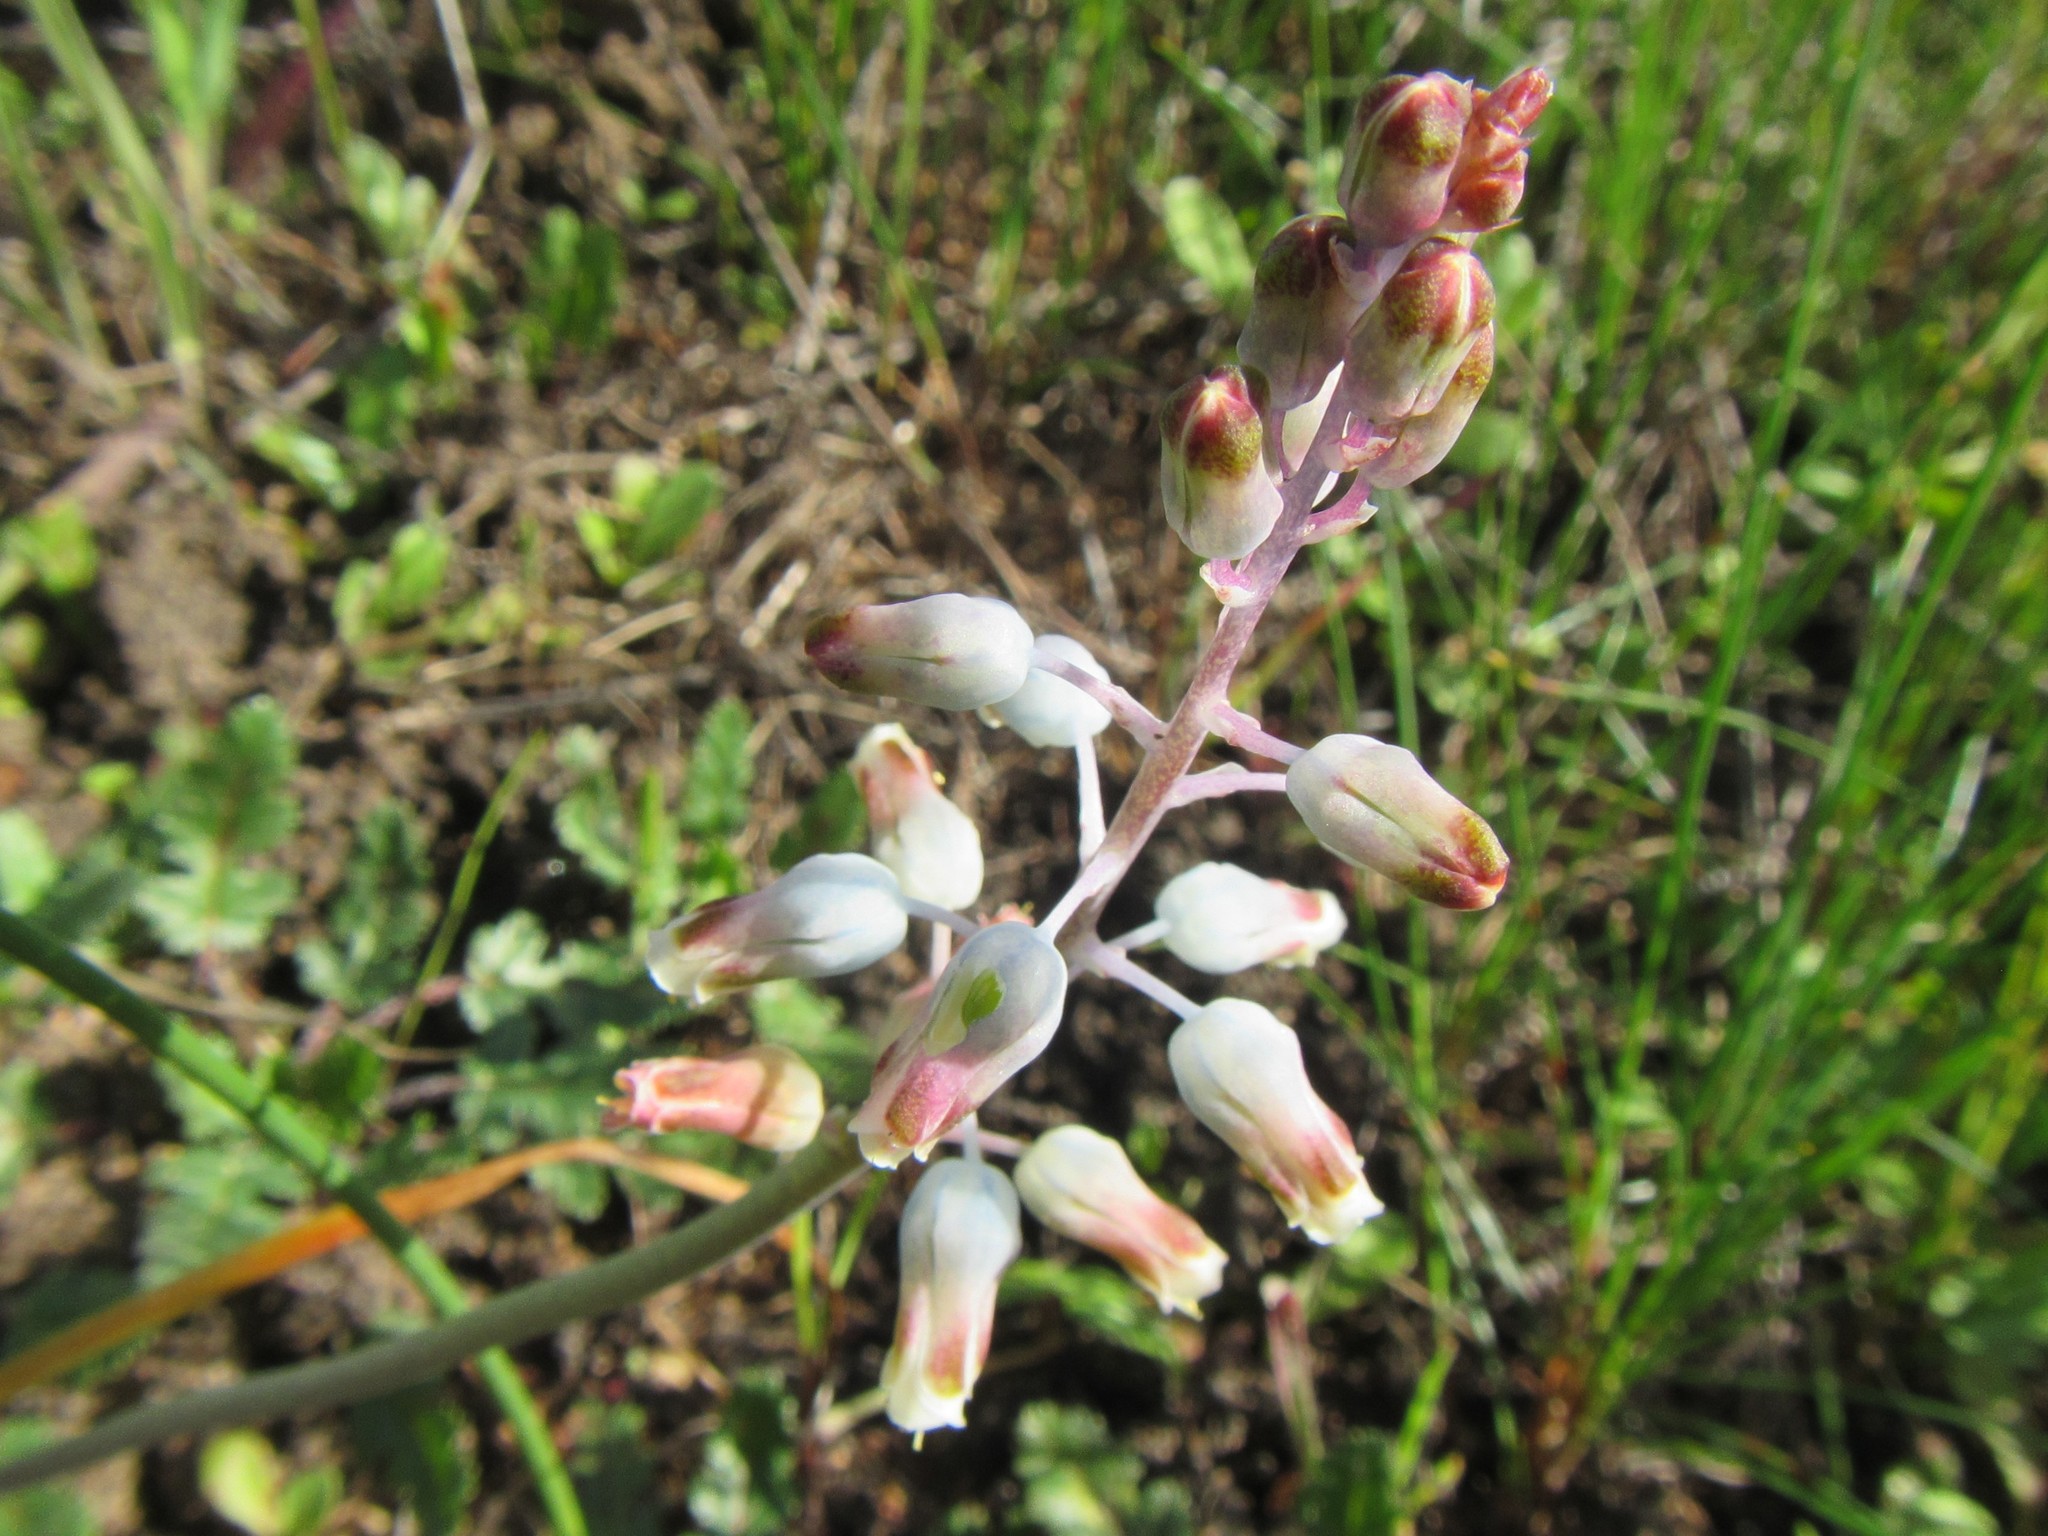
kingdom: Plantae
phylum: Tracheophyta
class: Liliopsida
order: Asparagales
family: Asparagaceae
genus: Lachenalia
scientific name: Lachenalia unifolia
